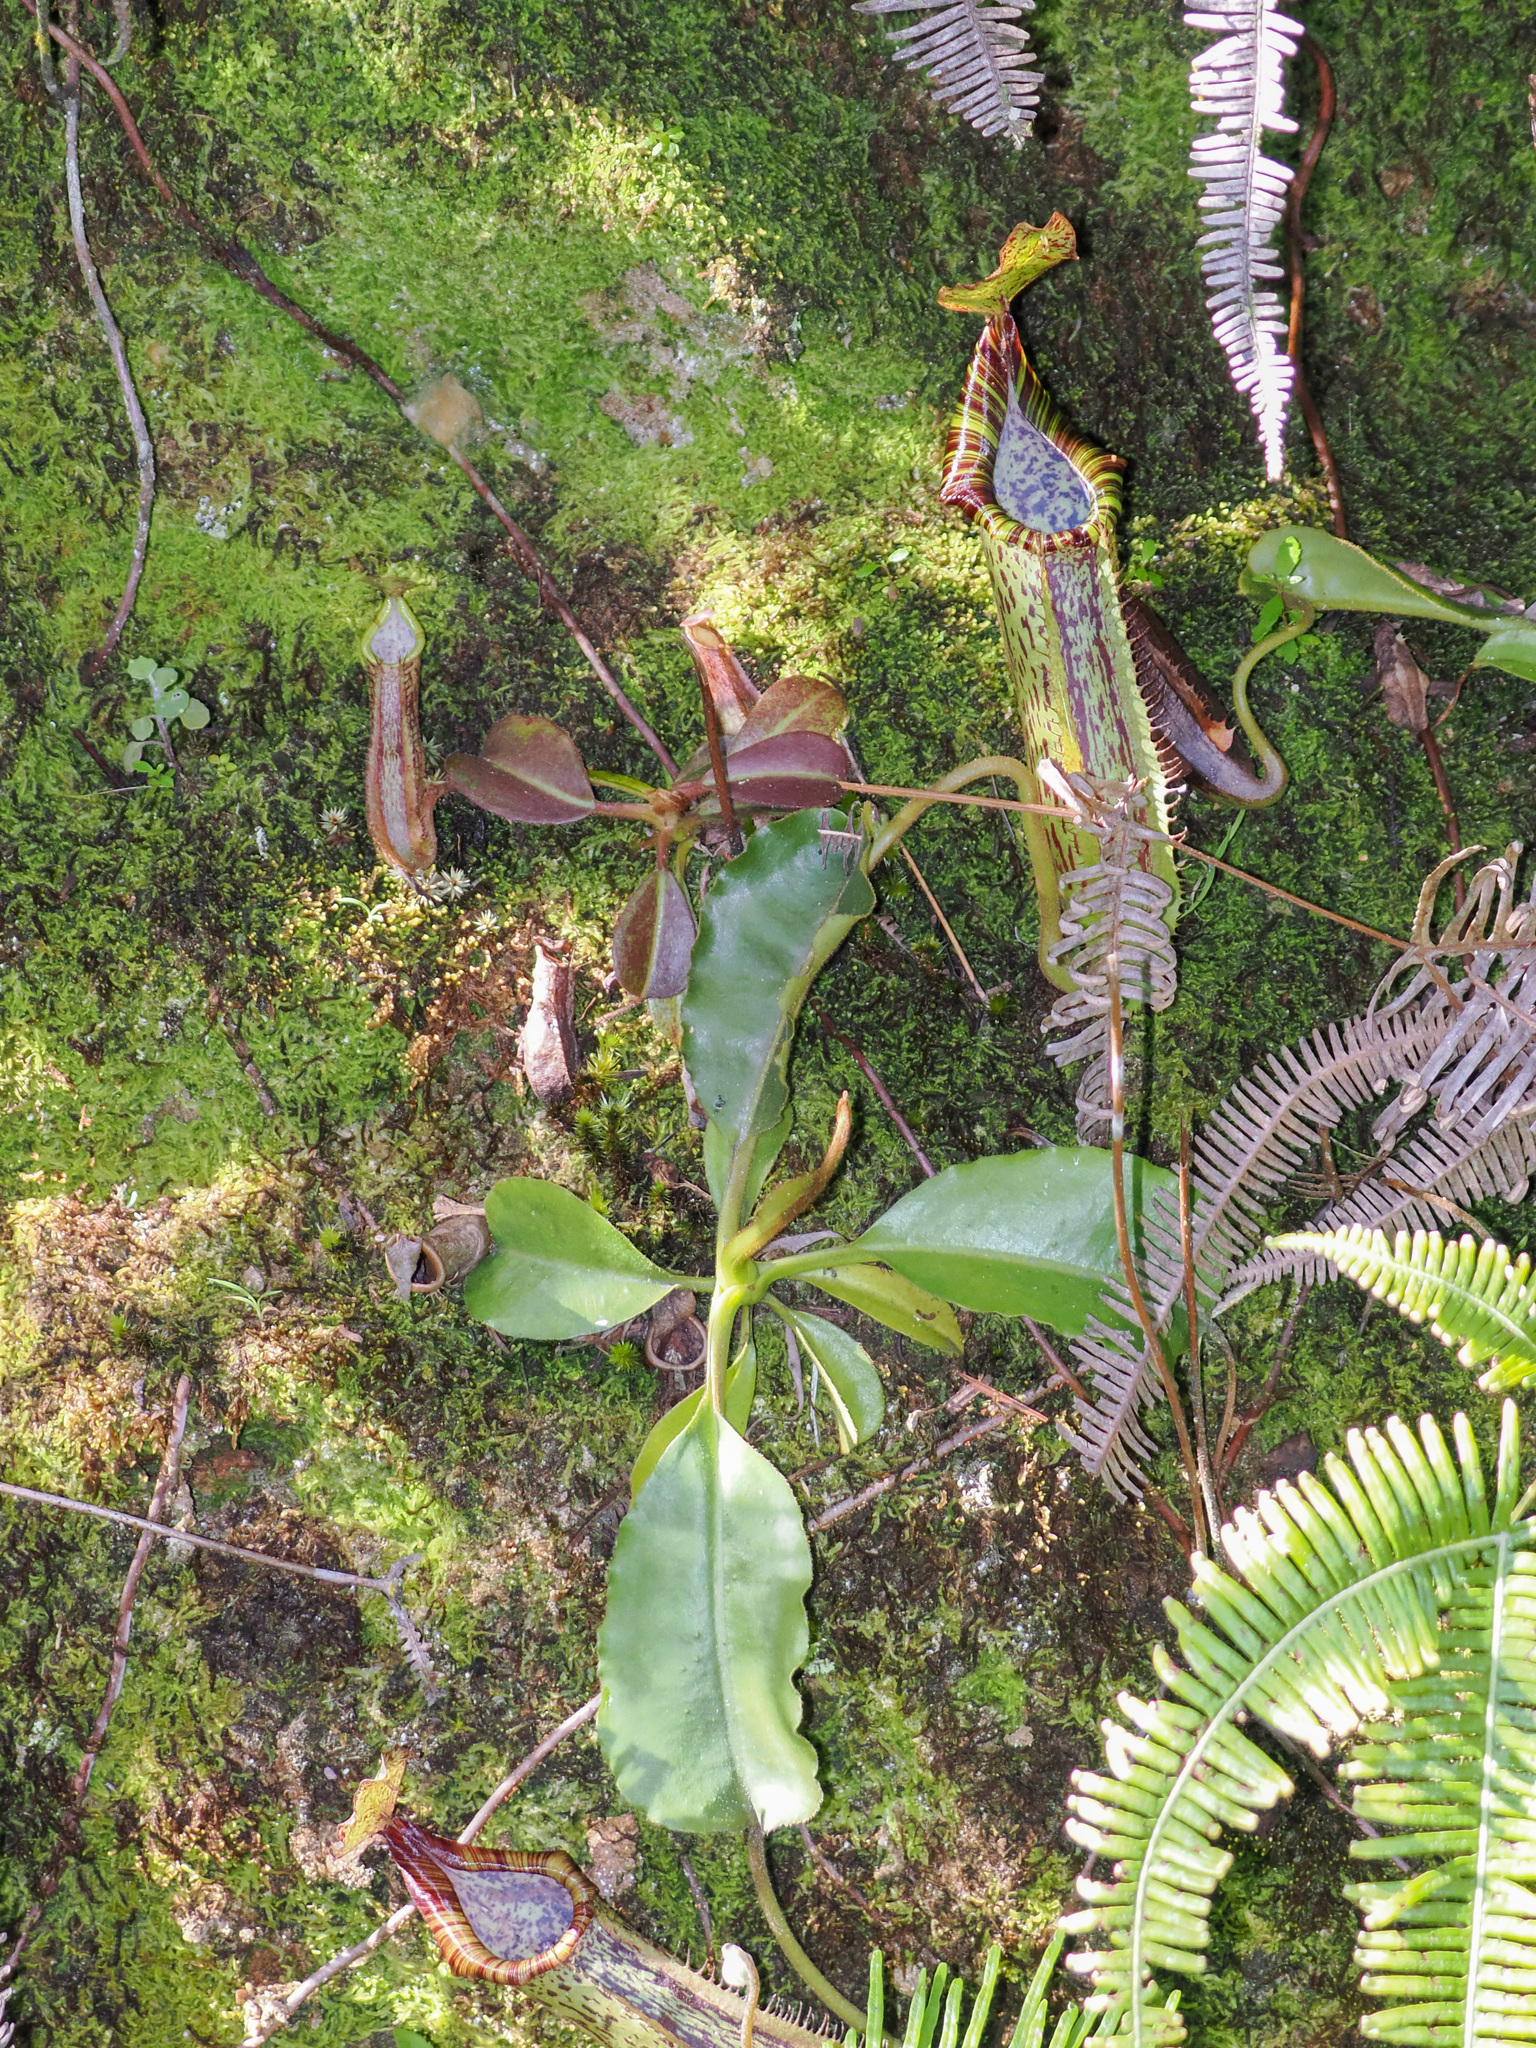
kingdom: Plantae
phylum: Tracheophyta
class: Magnoliopsida
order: Caryophyllales
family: Nepenthaceae
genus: Nepenthes
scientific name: Nepenthes maxima
